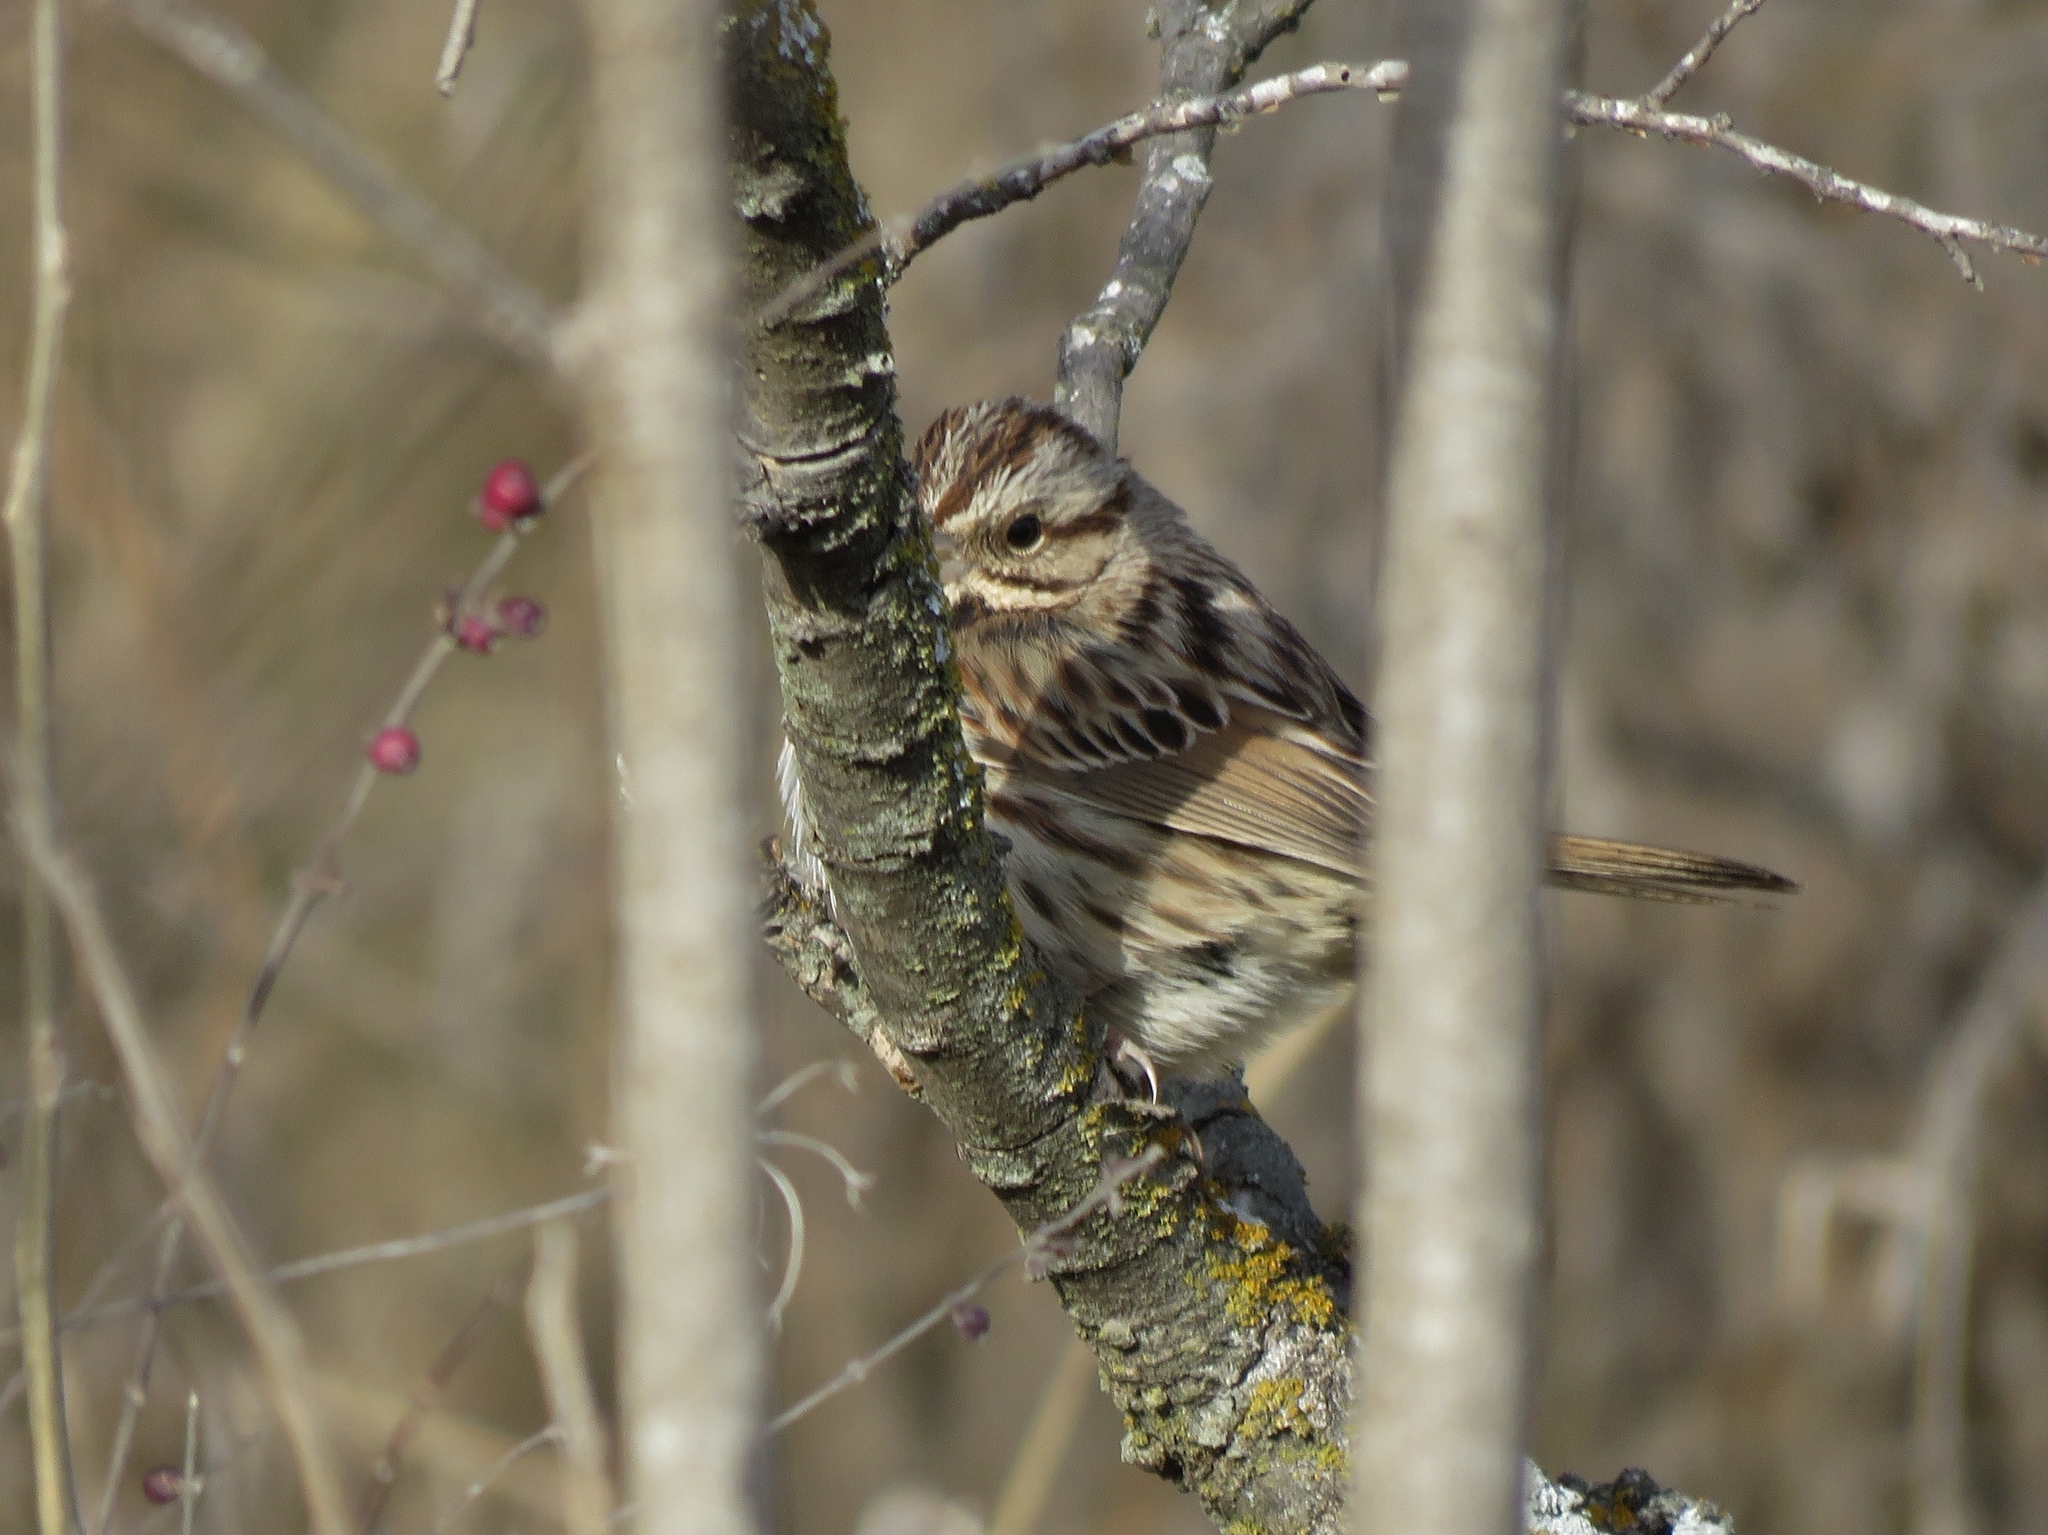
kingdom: Animalia
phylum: Chordata
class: Aves
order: Passeriformes
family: Passerellidae
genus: Melospiza
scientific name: Melospiza melodia
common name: Song sparrow
